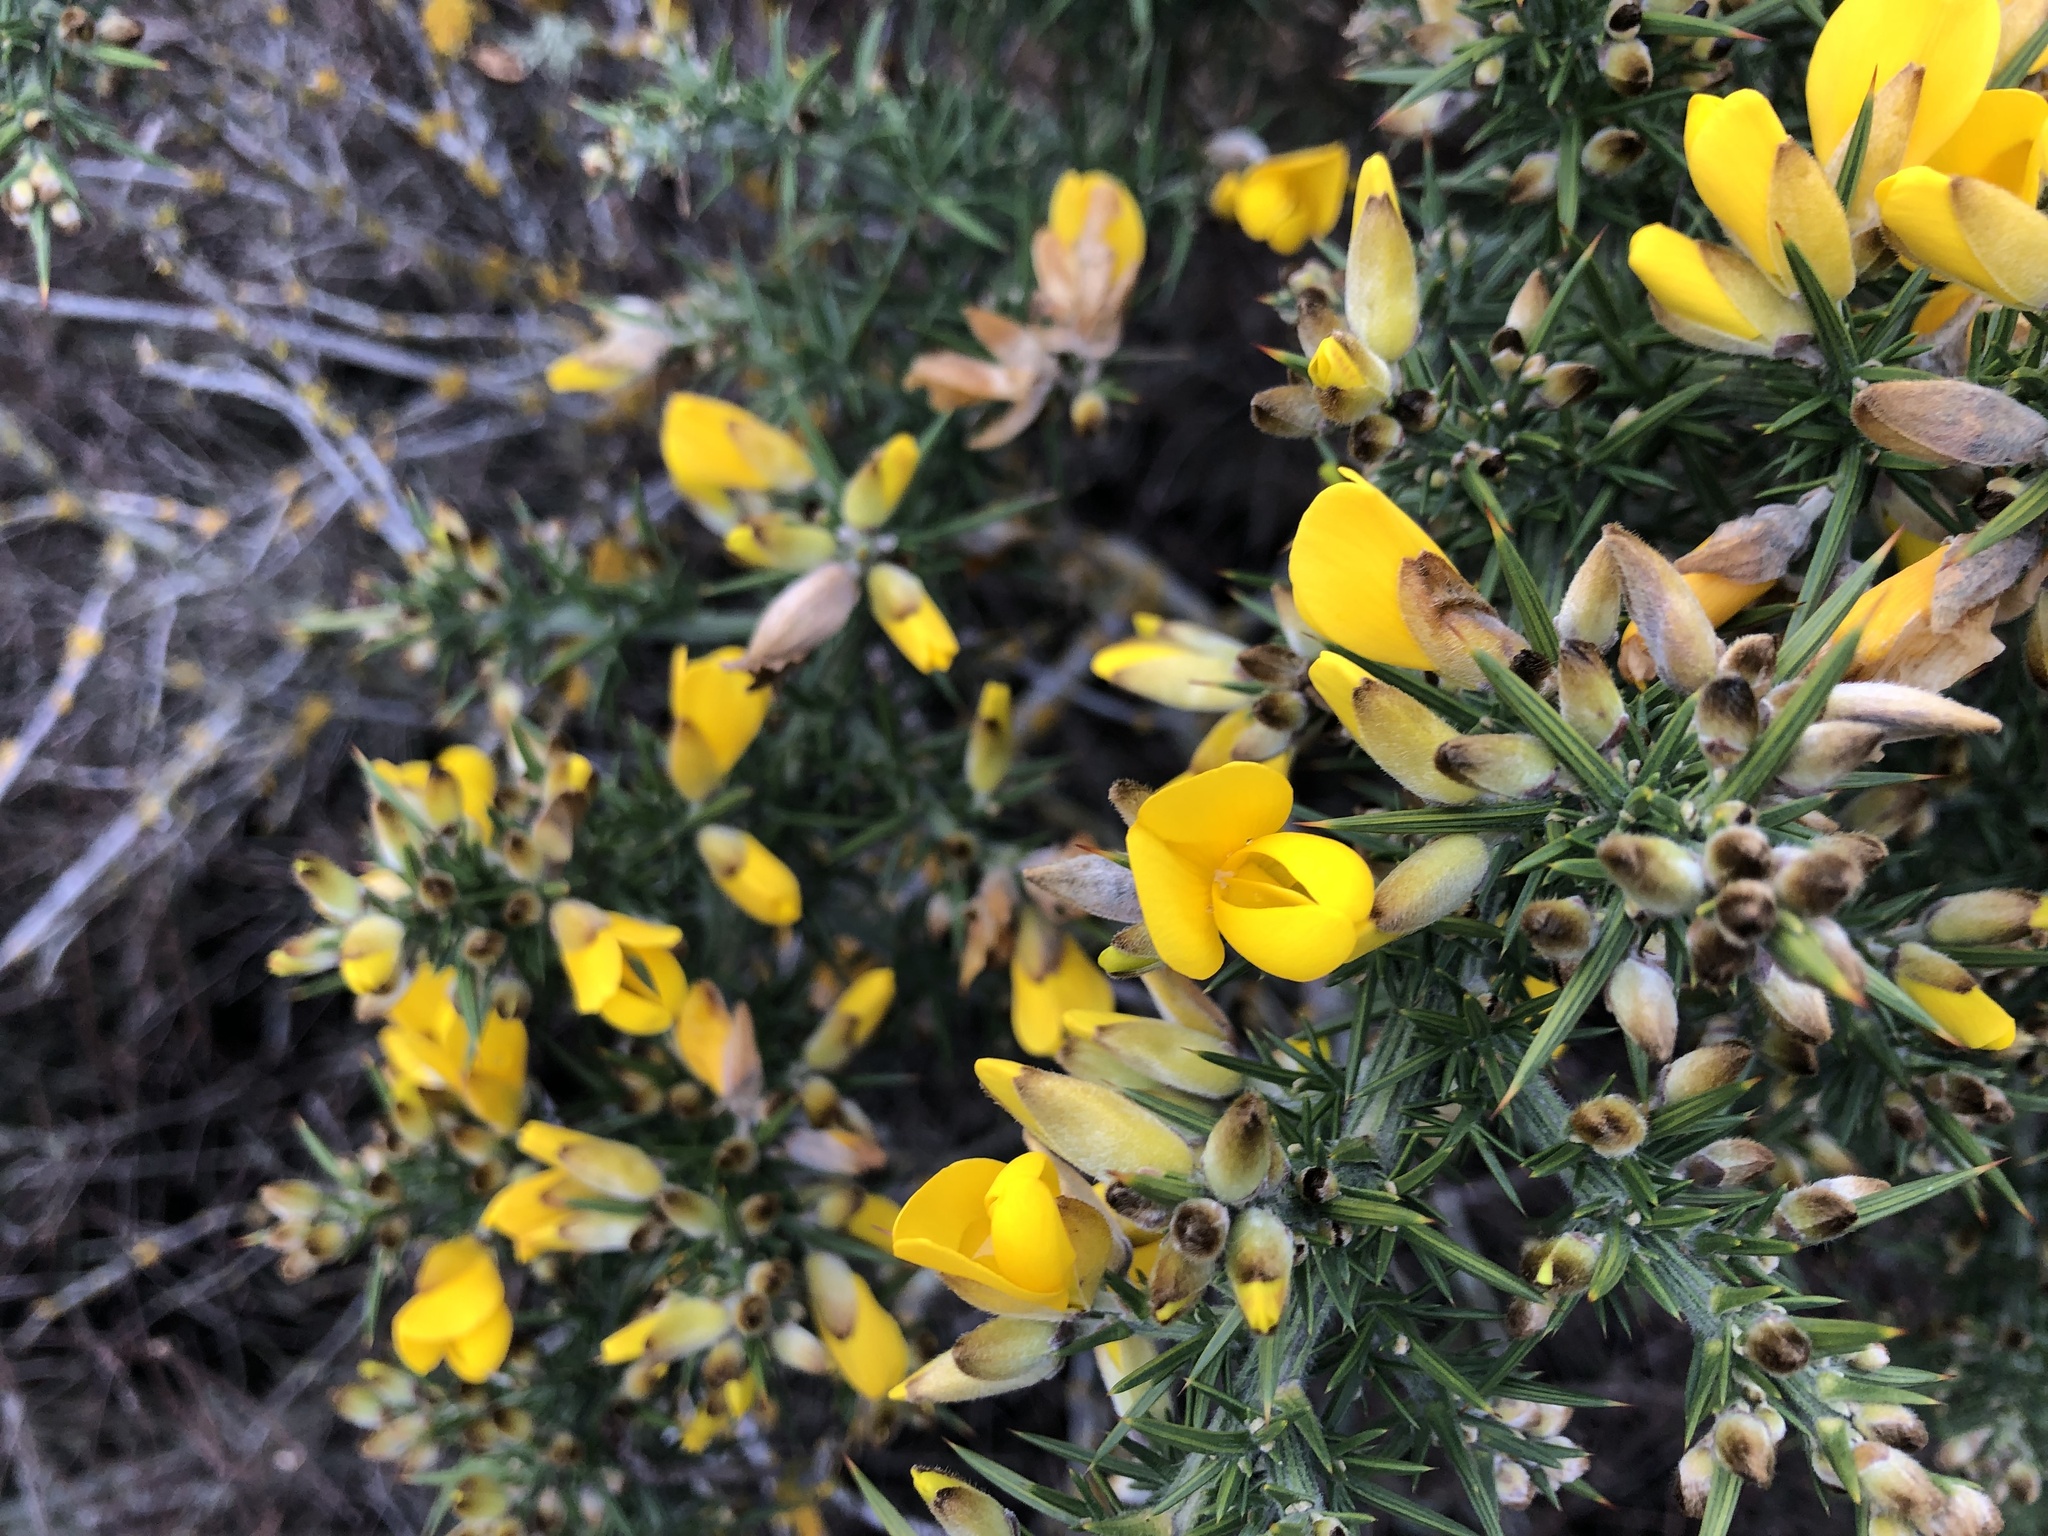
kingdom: Plantae
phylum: Tracheophyta
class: Magnoliopsida
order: Fabales
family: Fabaceae
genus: Ulex
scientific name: Ulex europaeus
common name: Common gorse
